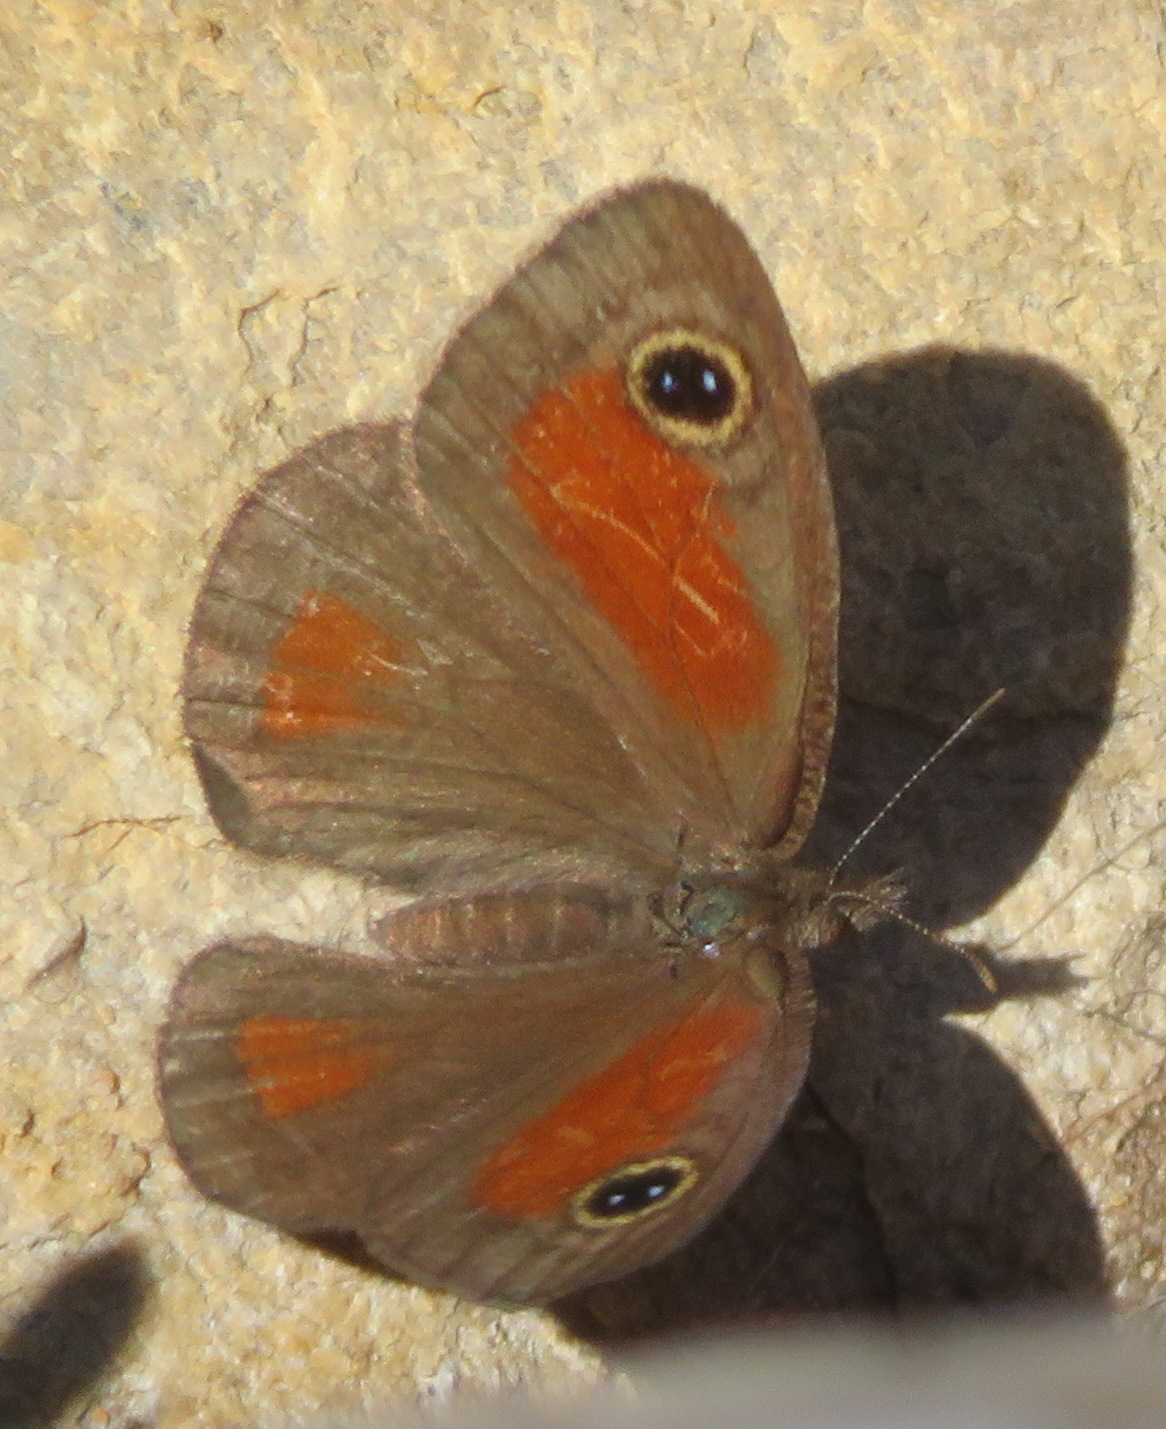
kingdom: Animalia
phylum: Arthropoda
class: Insecta
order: Lepidoptera
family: Nymphalidae
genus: Pseudonympha
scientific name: Pseudonympha detecta
